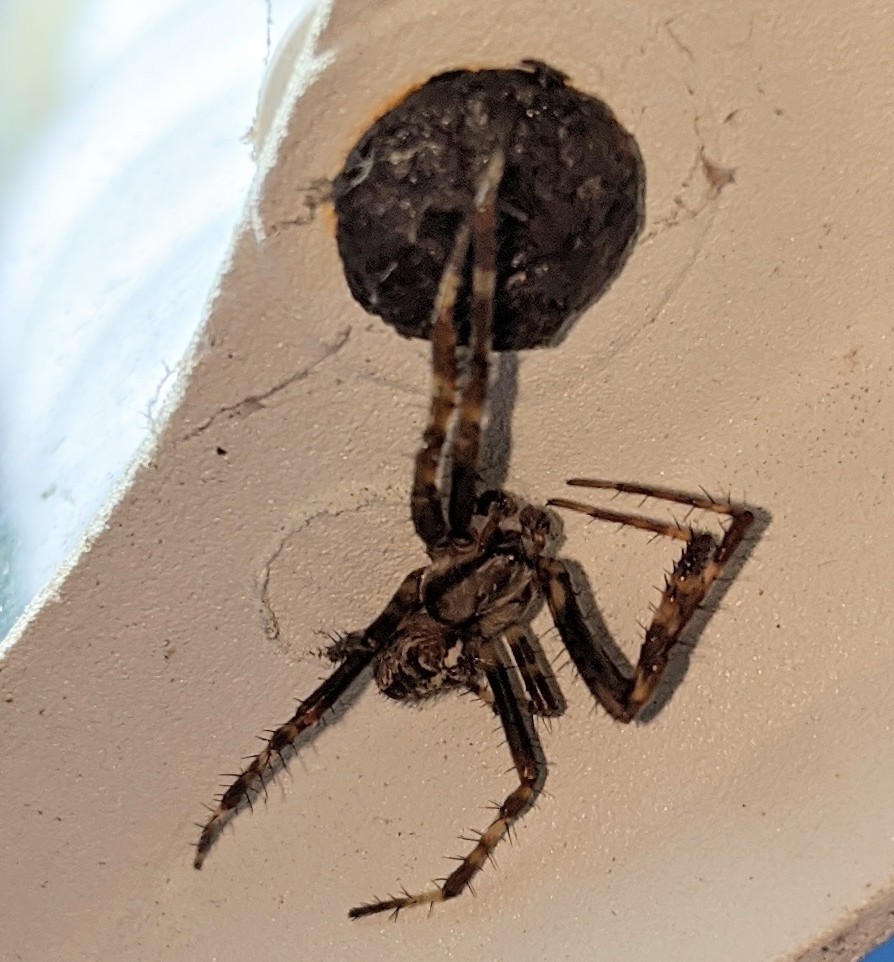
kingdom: Animalia
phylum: Arthropoda
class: Arachnida
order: Araneae
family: Araneidae
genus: Araneus
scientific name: Araneus diadematus
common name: Cross orbweaver
